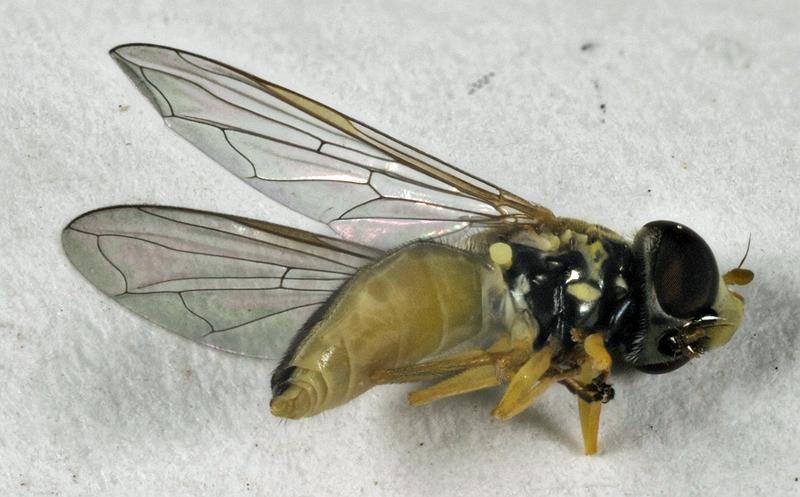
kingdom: Animalia
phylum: Arthropoda
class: Insecta
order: Diptera
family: Syrphidae
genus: Toxomerus
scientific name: Toxomerus marginatus
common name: Syrphid fly
